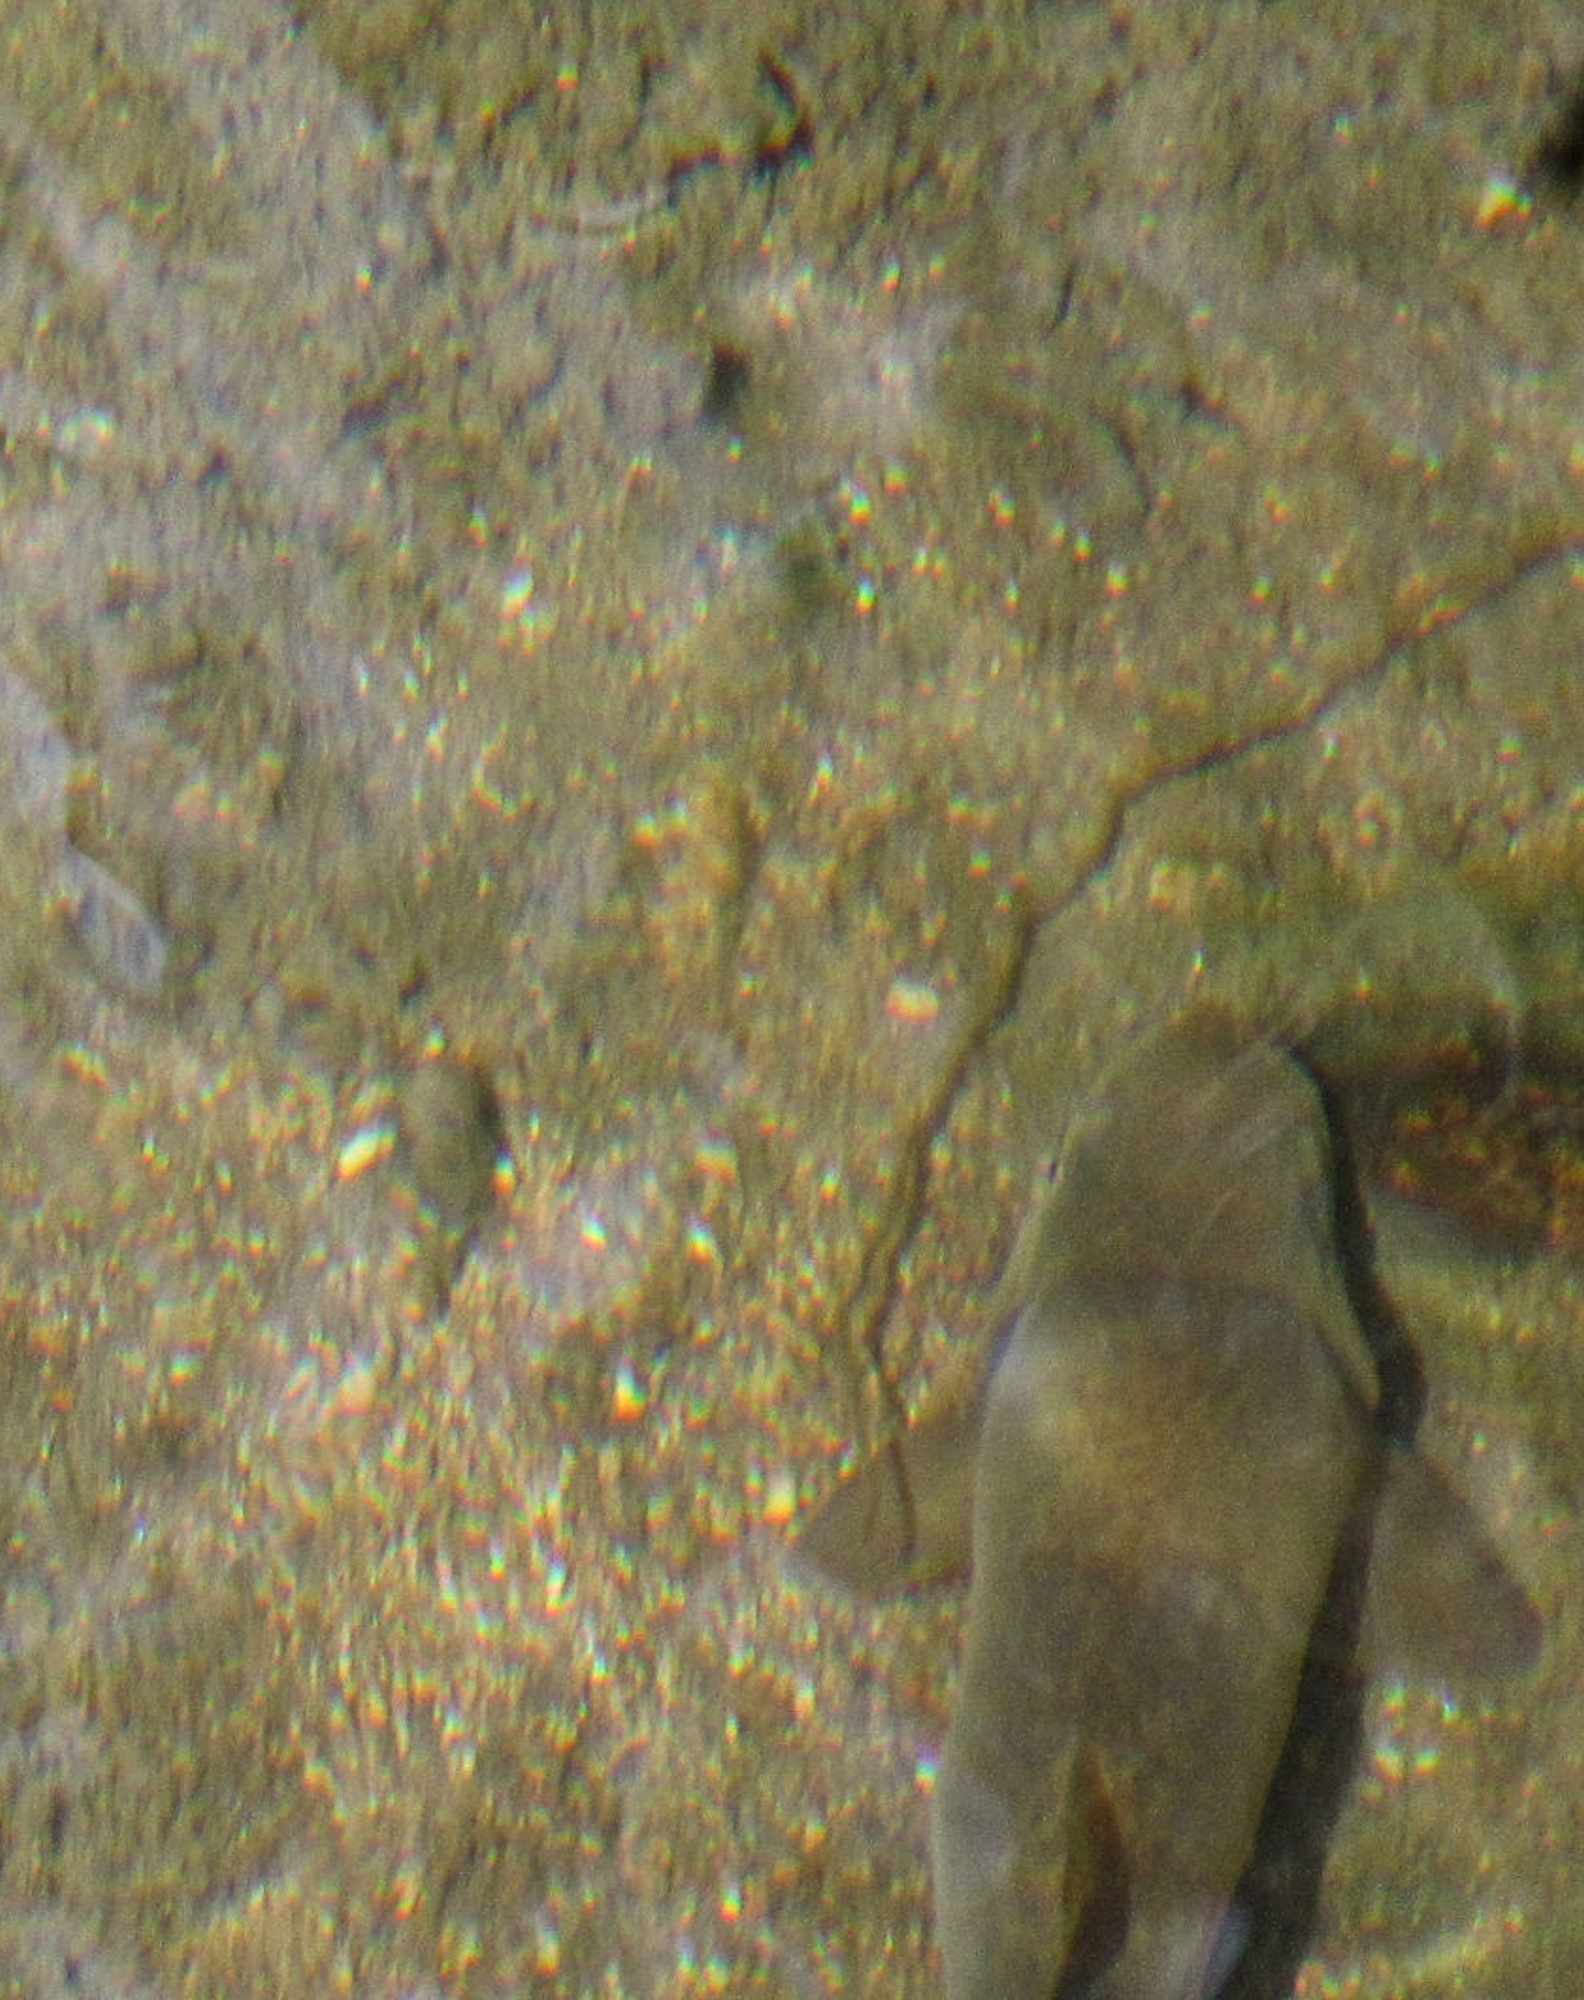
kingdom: Animalia
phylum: Chordata
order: Cypriniformes
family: Catostomidae
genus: Catostomus
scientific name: Catostomus clarkii
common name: Desert sucker
